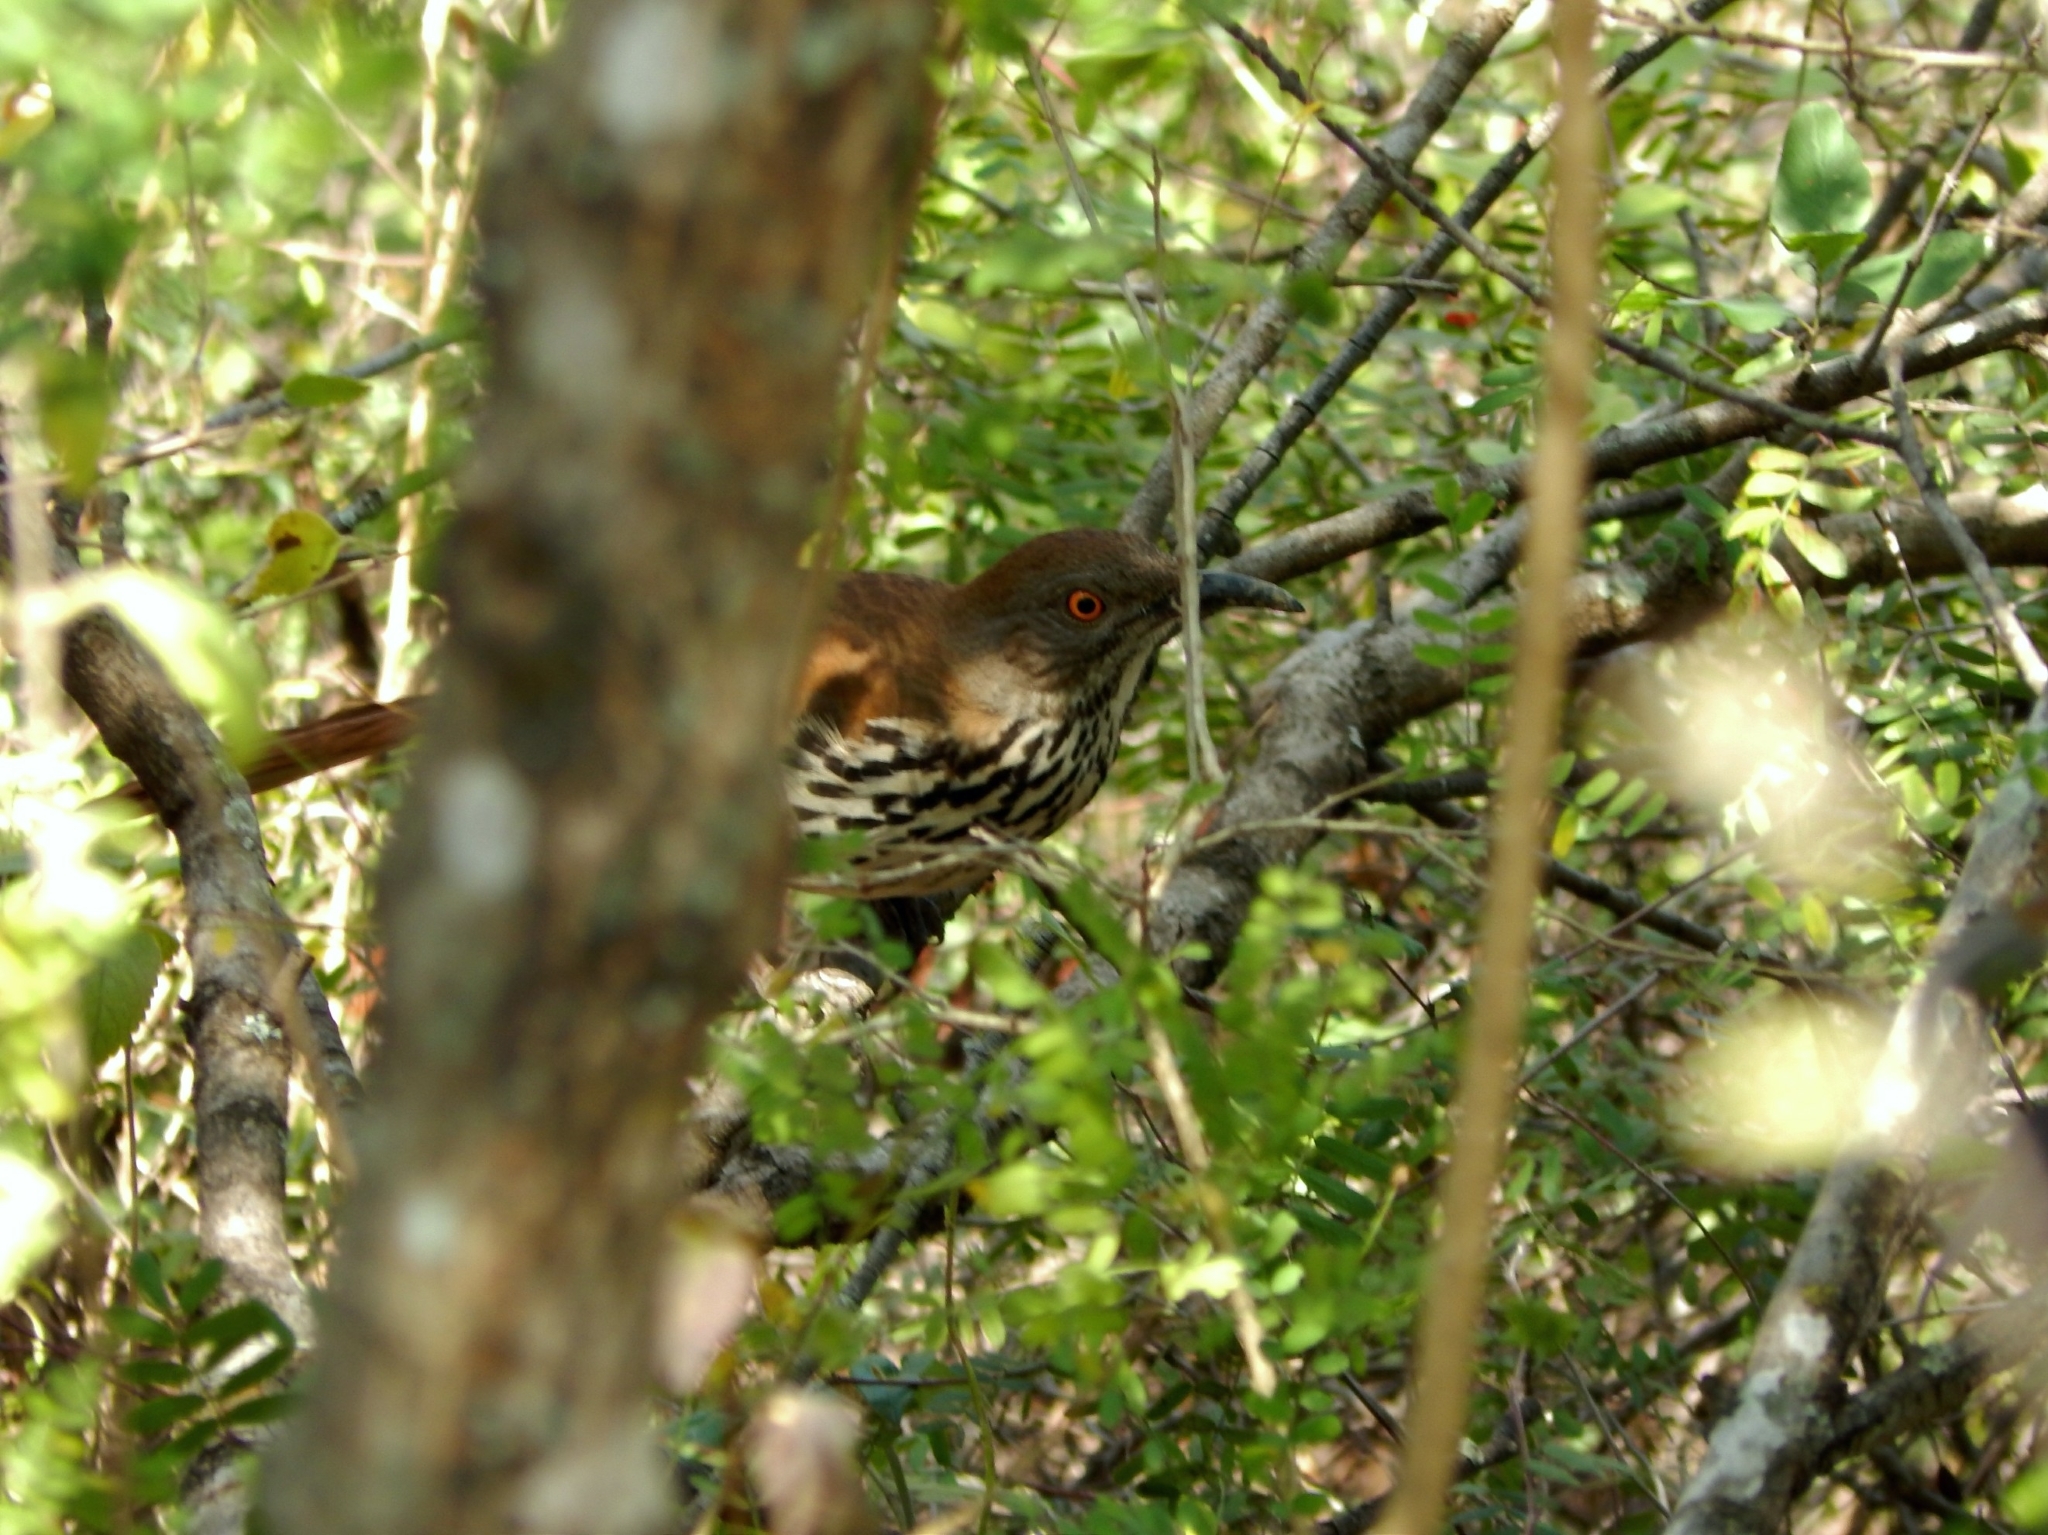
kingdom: Animalia
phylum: Chordata
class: Aves
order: Passeriformes
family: Mimidae
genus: Toxostoma
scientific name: Toxostoma longirostre
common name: Long-billed thrasher
